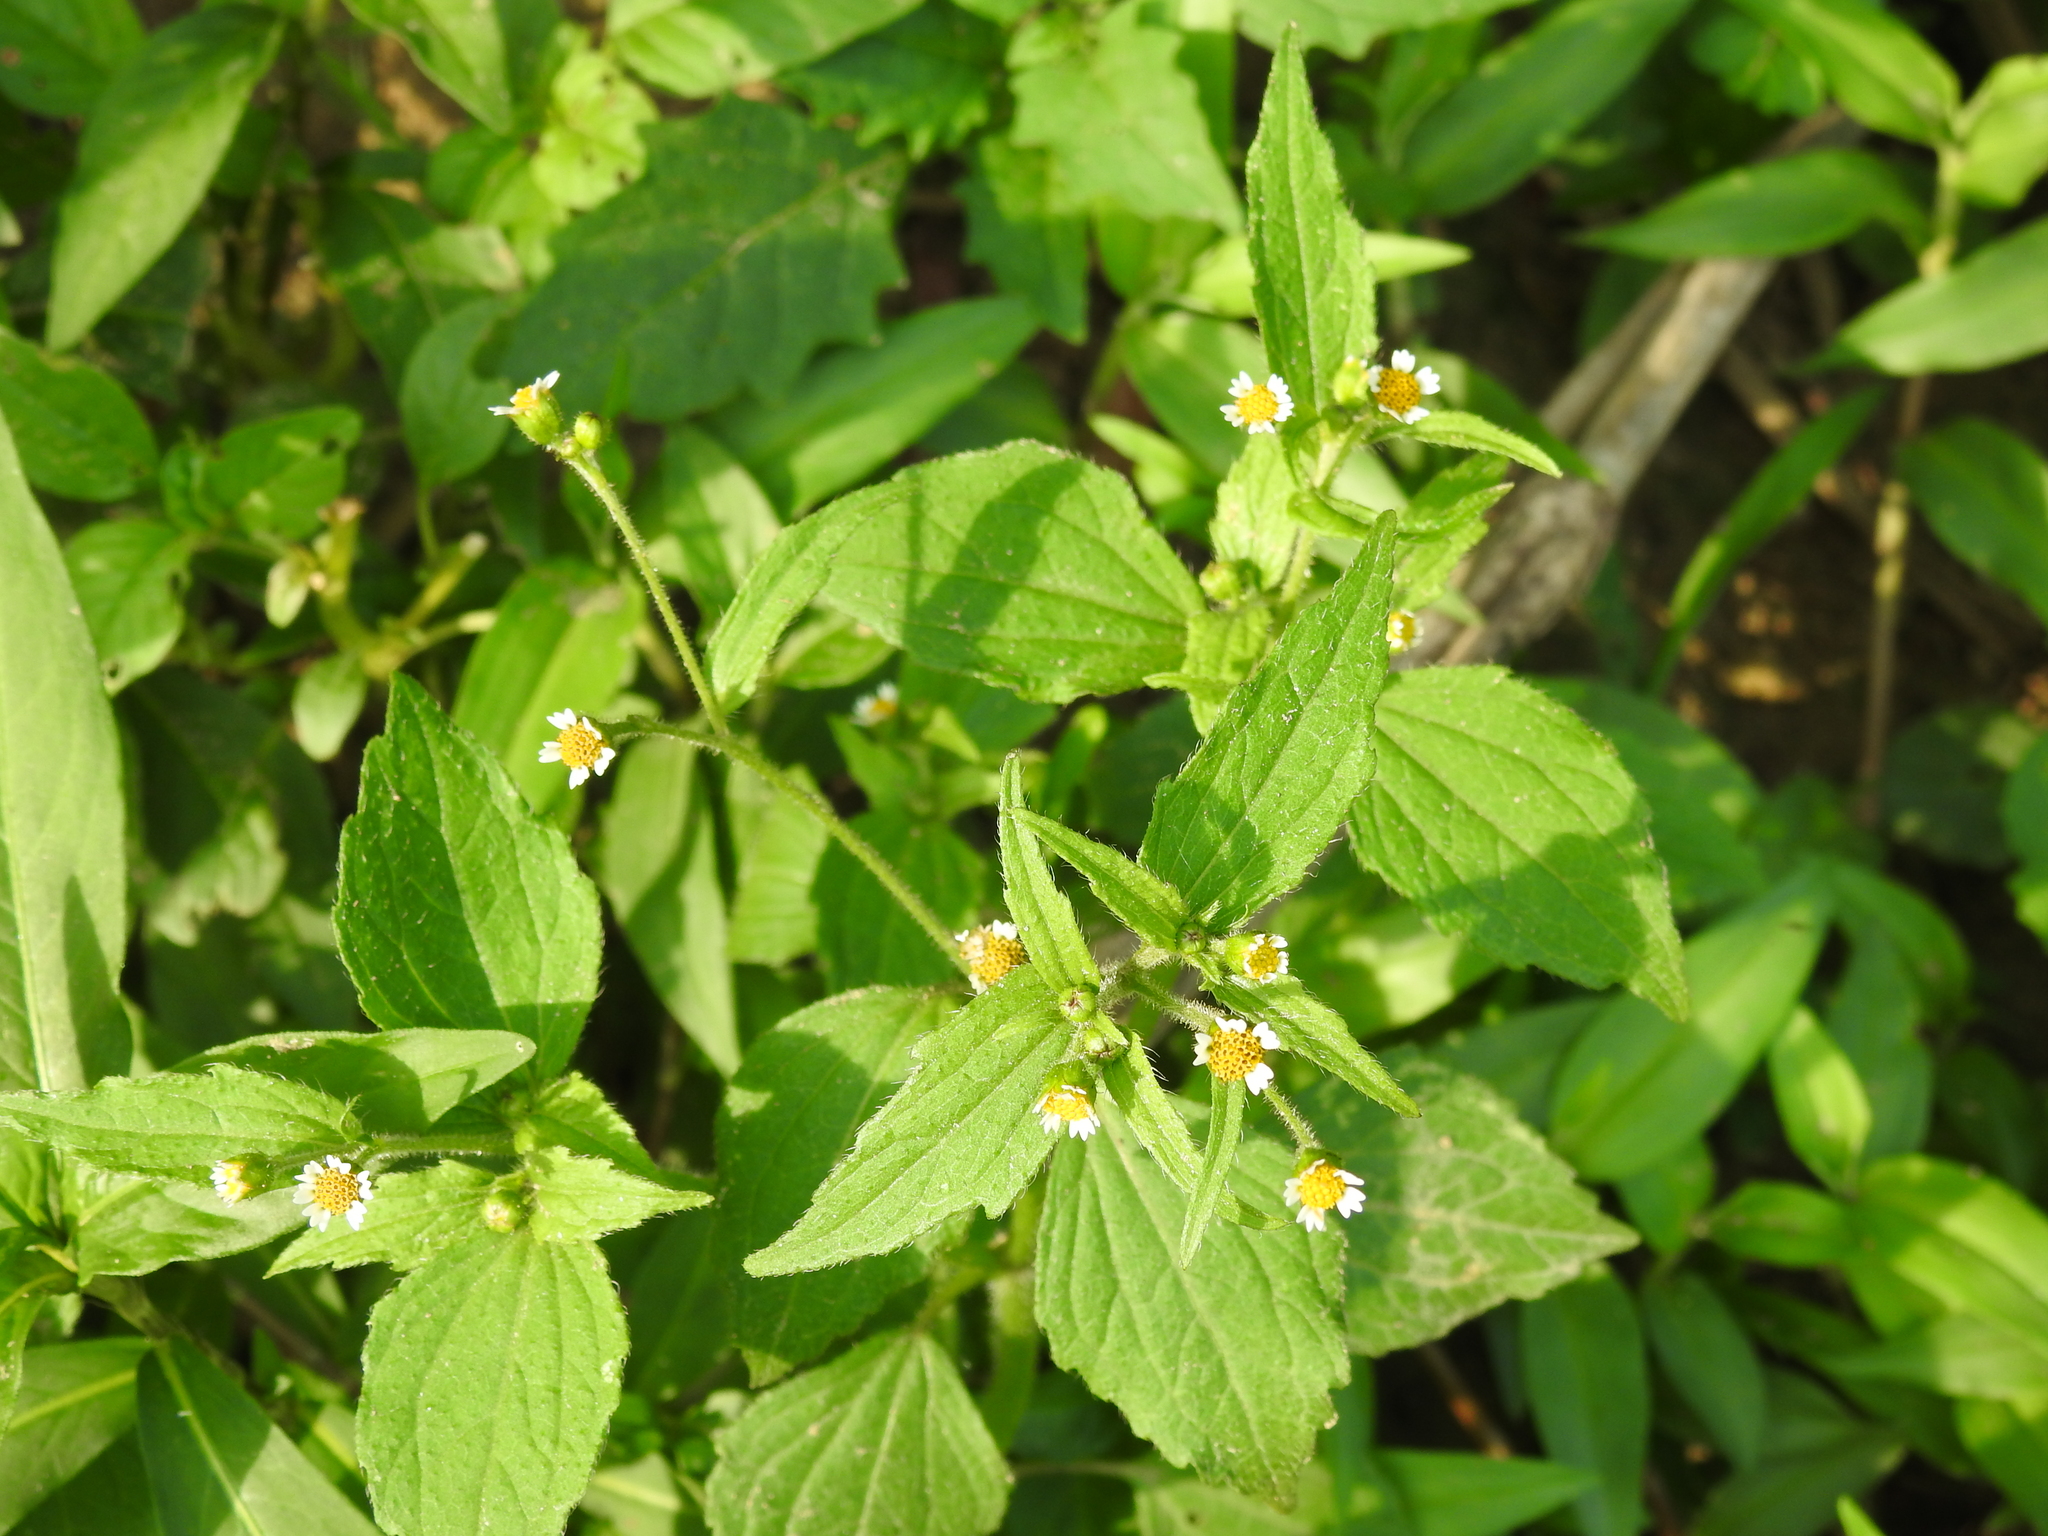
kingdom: Plantae
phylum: Tracheophyta
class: Magnoliopsida
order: Asterales
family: Asteraceae
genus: Galinsoga
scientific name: Galinsoga quadriradiata
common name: Shaggy soldier
